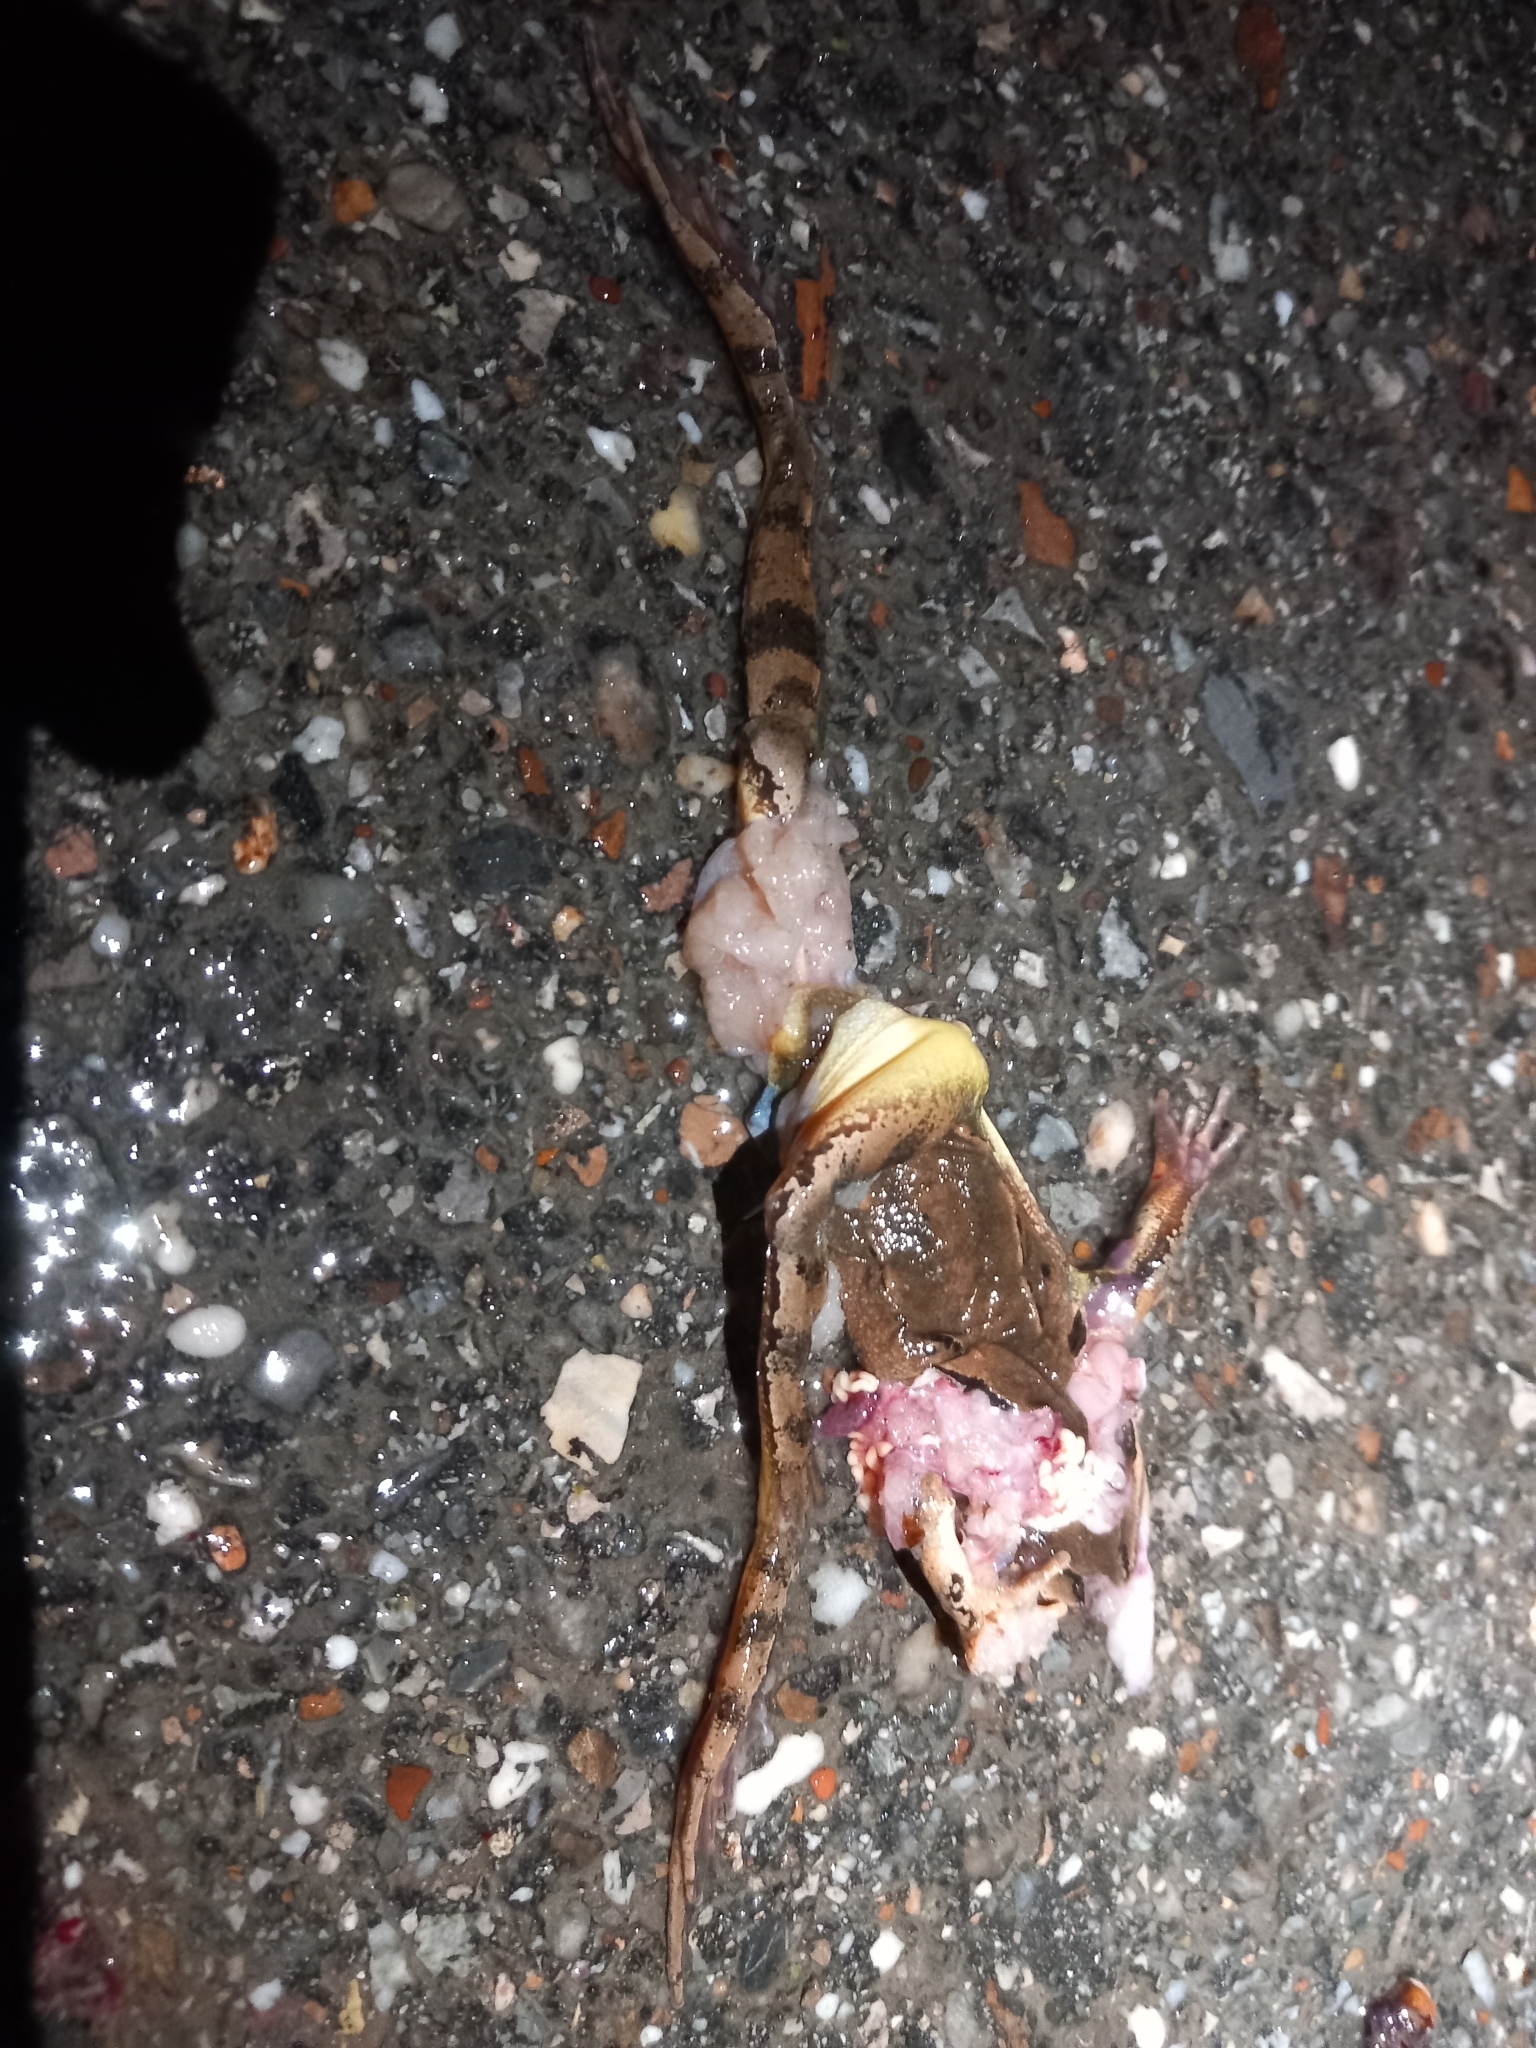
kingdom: Animalia
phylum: Chordata
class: Amphibia
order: Anura
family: Ranidae
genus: Rana
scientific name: Rana dalmatina
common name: Agile frog
